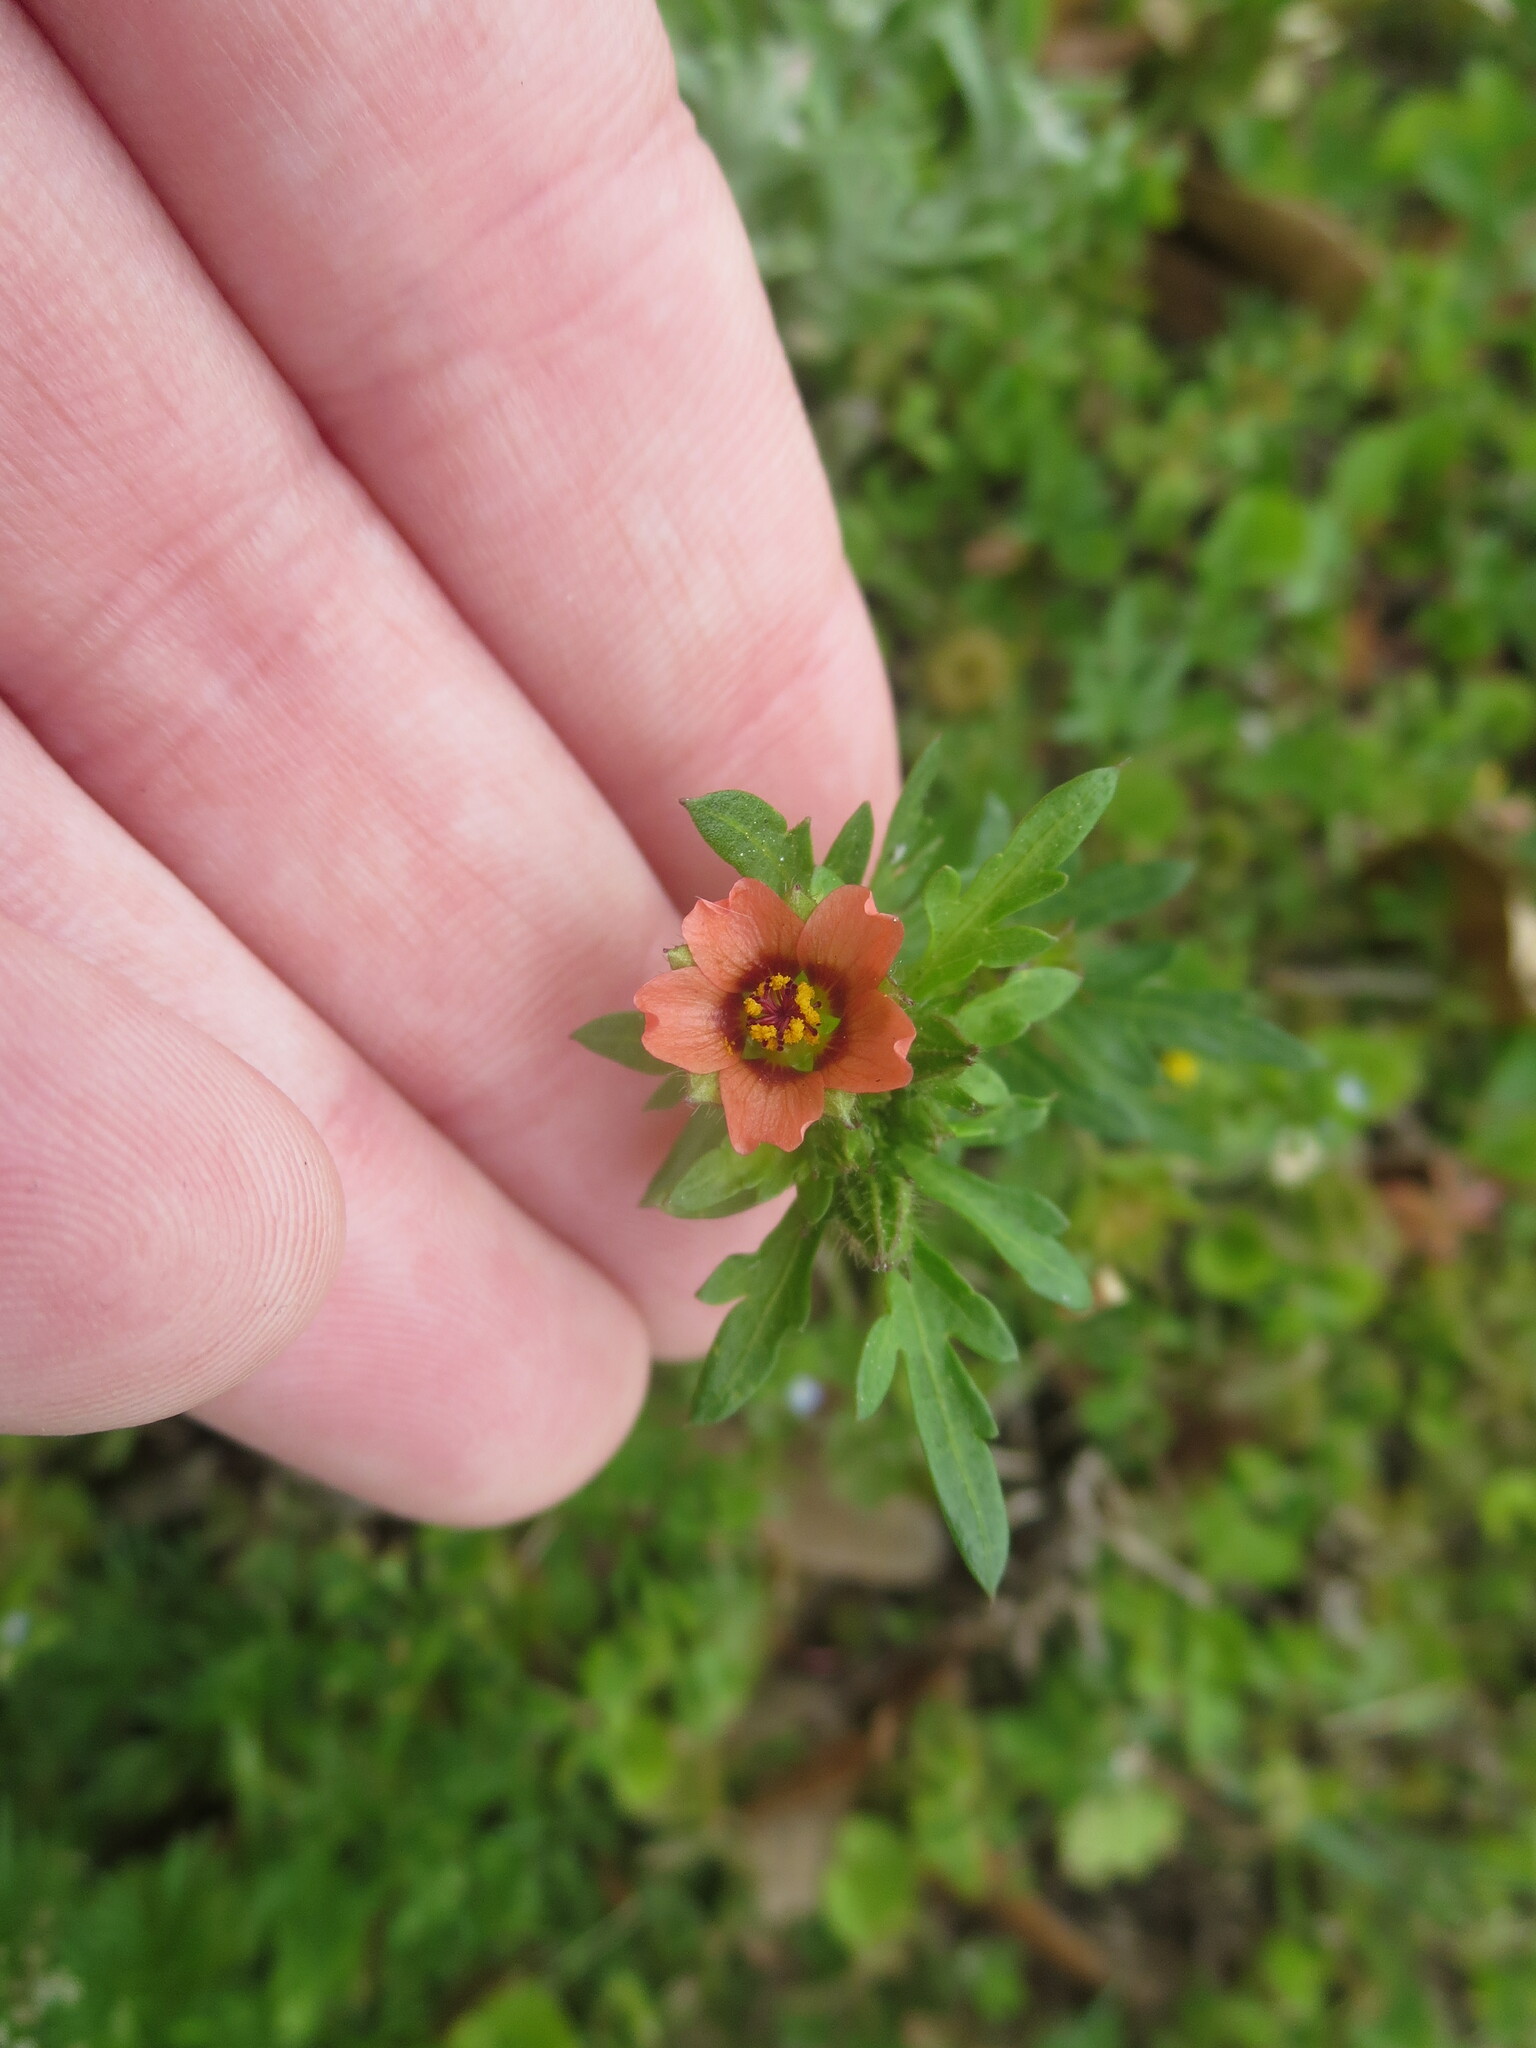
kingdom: Plantae
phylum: Tracheophyta
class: Magnoliopsida
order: Malvales
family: Malvaceae
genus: Modiola
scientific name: Modiola caroliniana
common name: Carolina bristlemallow
